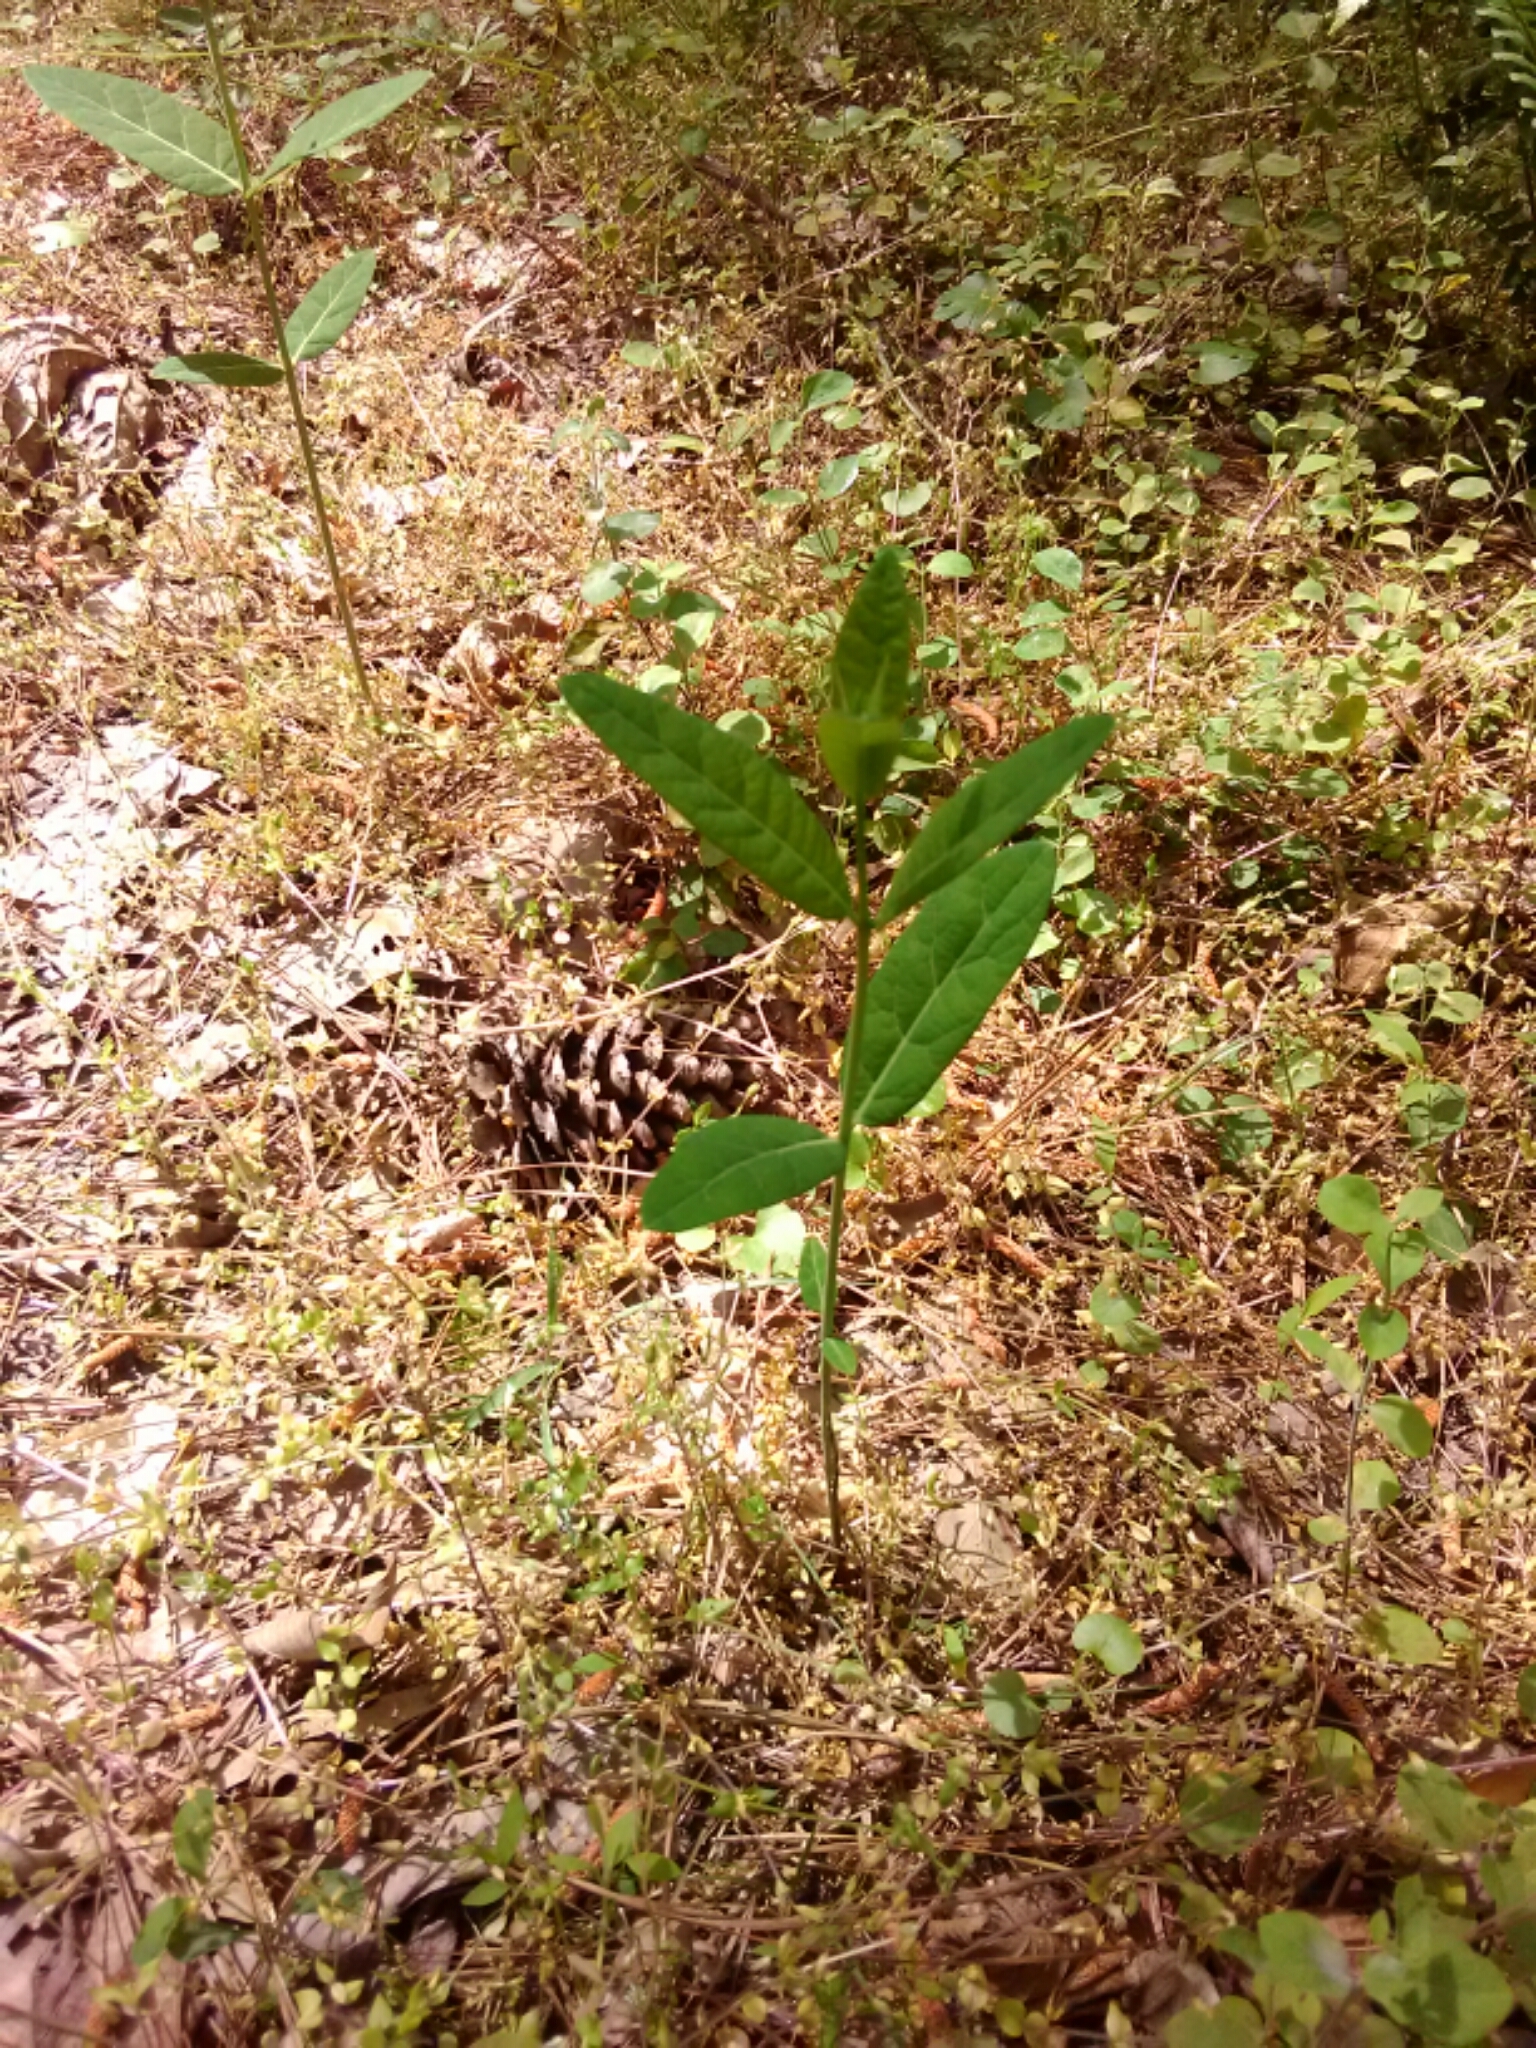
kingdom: Plantae
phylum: Tracheophyta
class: Magnoliopsida
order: Gentianales
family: Apocynaceae
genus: Apocynum
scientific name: Apocynum cannabinum
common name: Hemp dogbane
